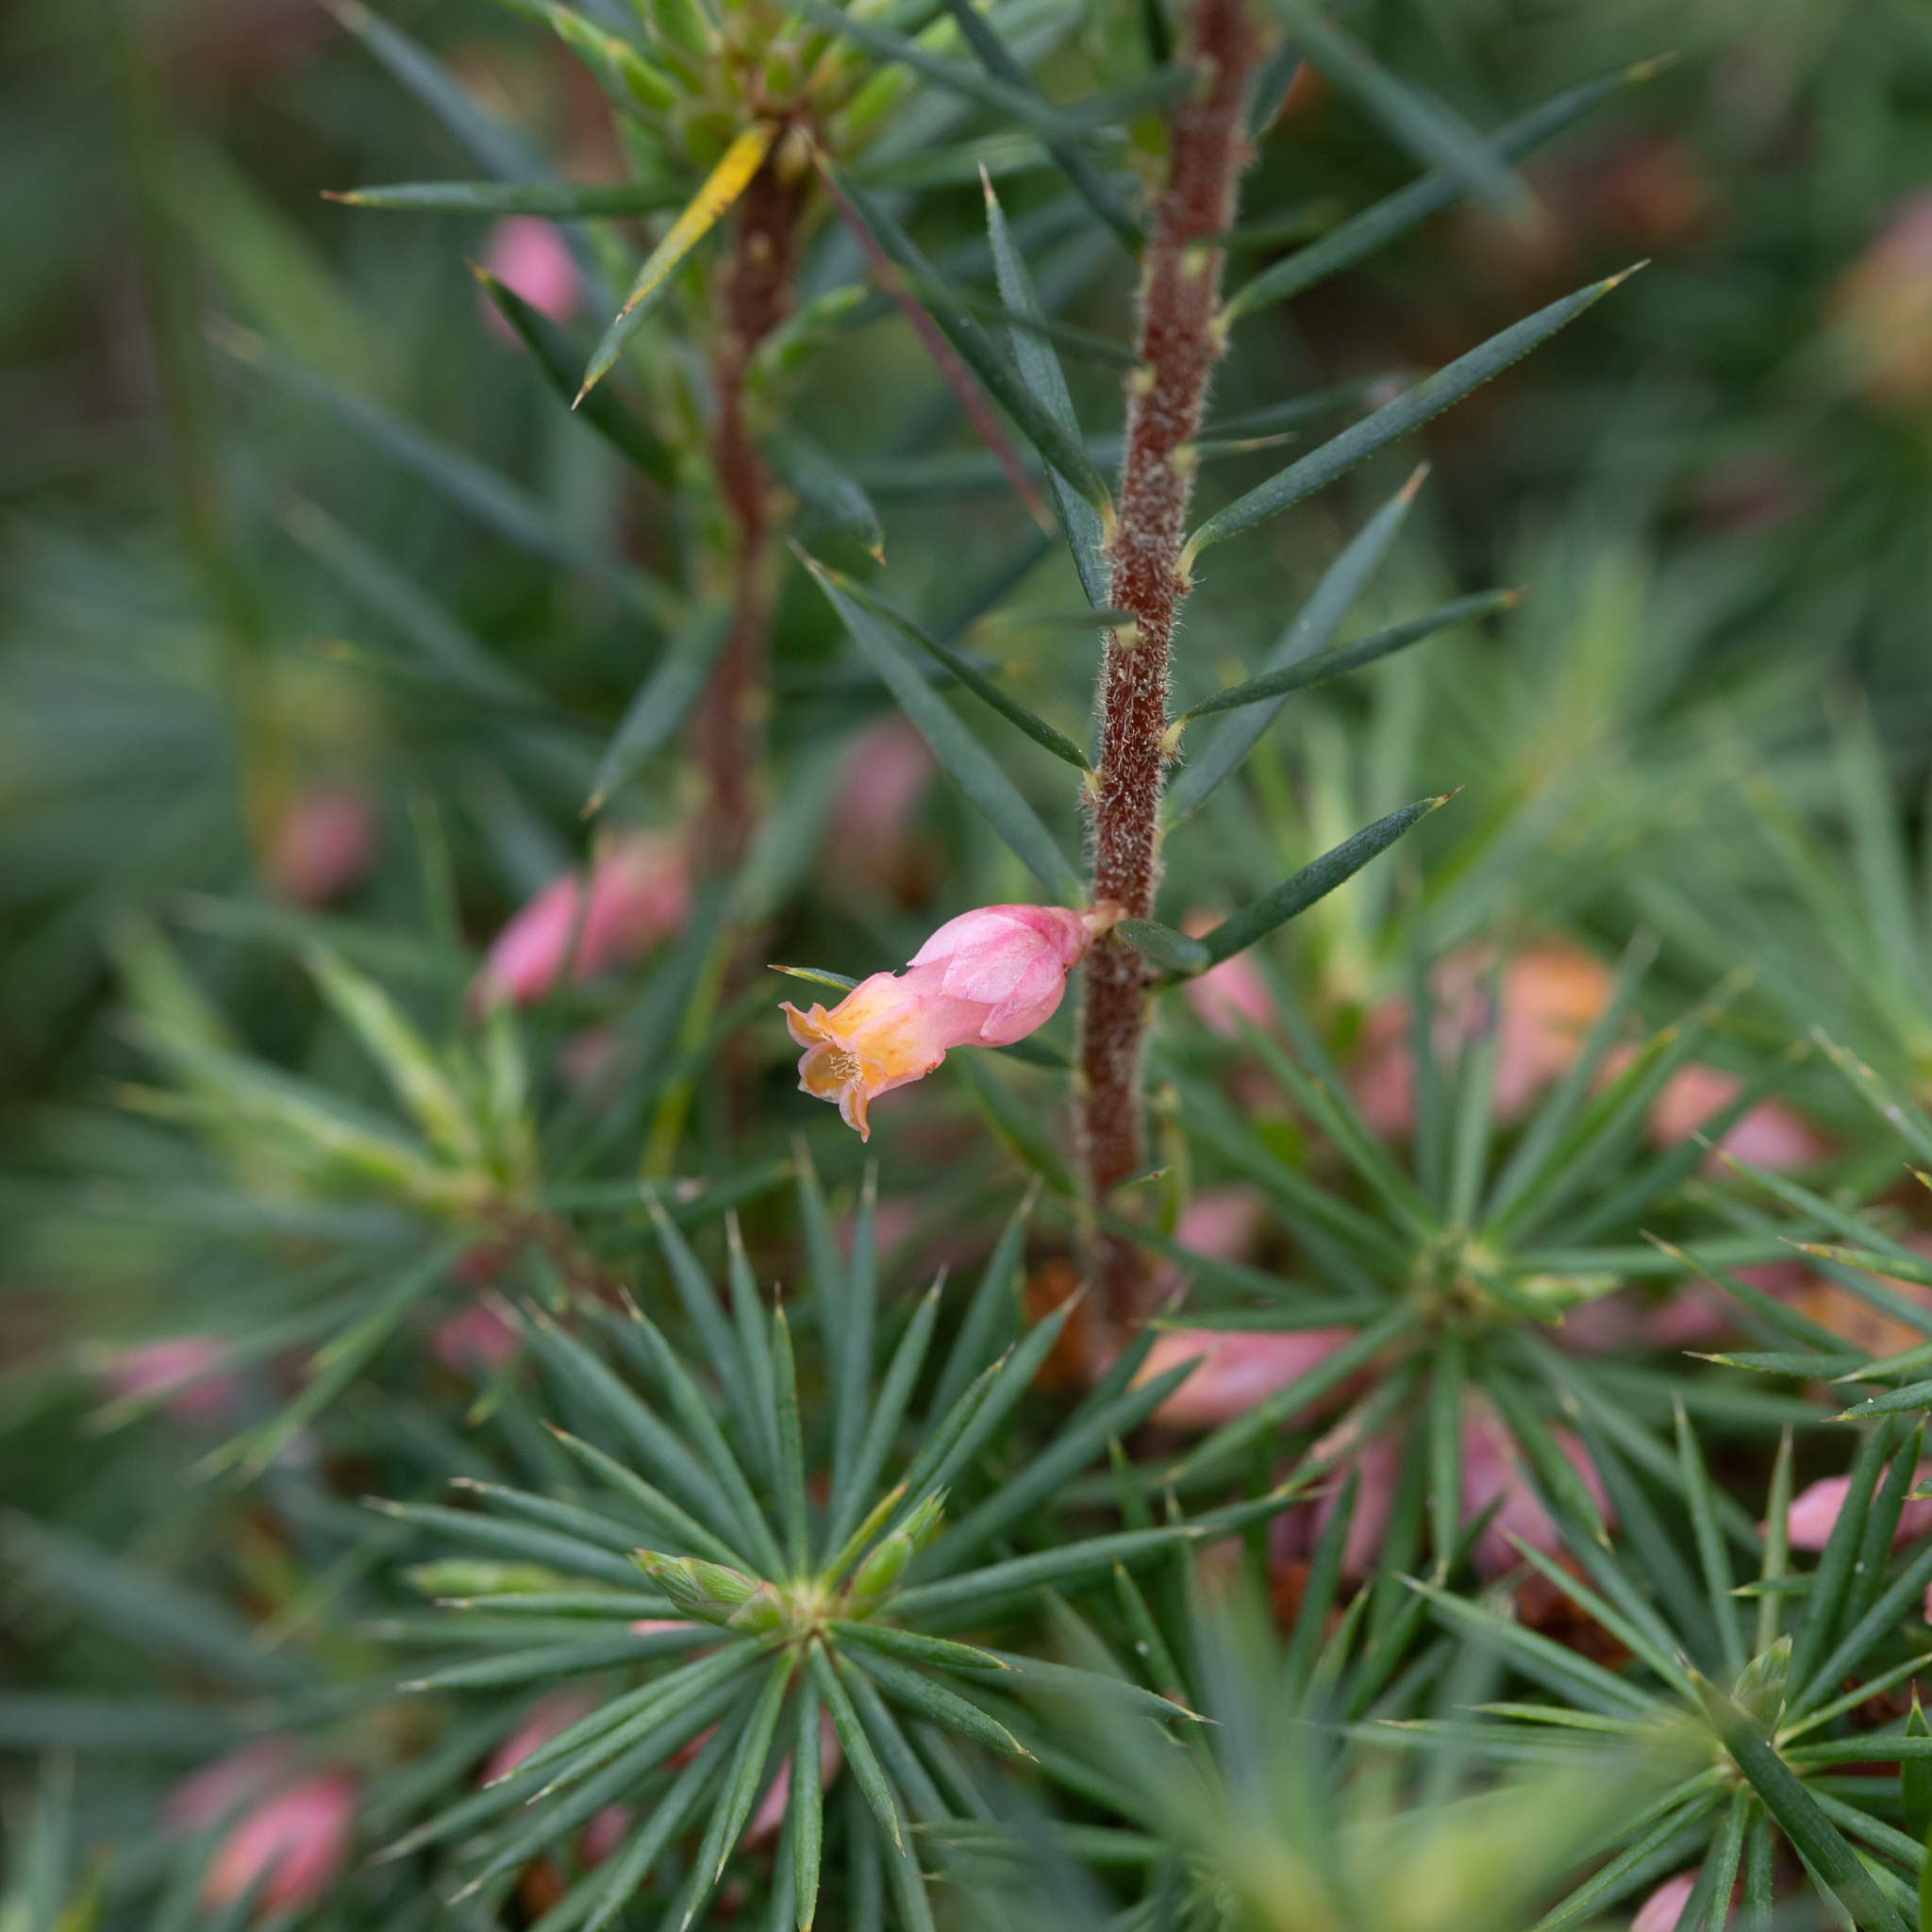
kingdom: Plantae
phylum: Tracheophyta
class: Magnoliopsida
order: Ericales
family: Ericaceae
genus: Brachyloma
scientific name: Brachyloma ericoides
